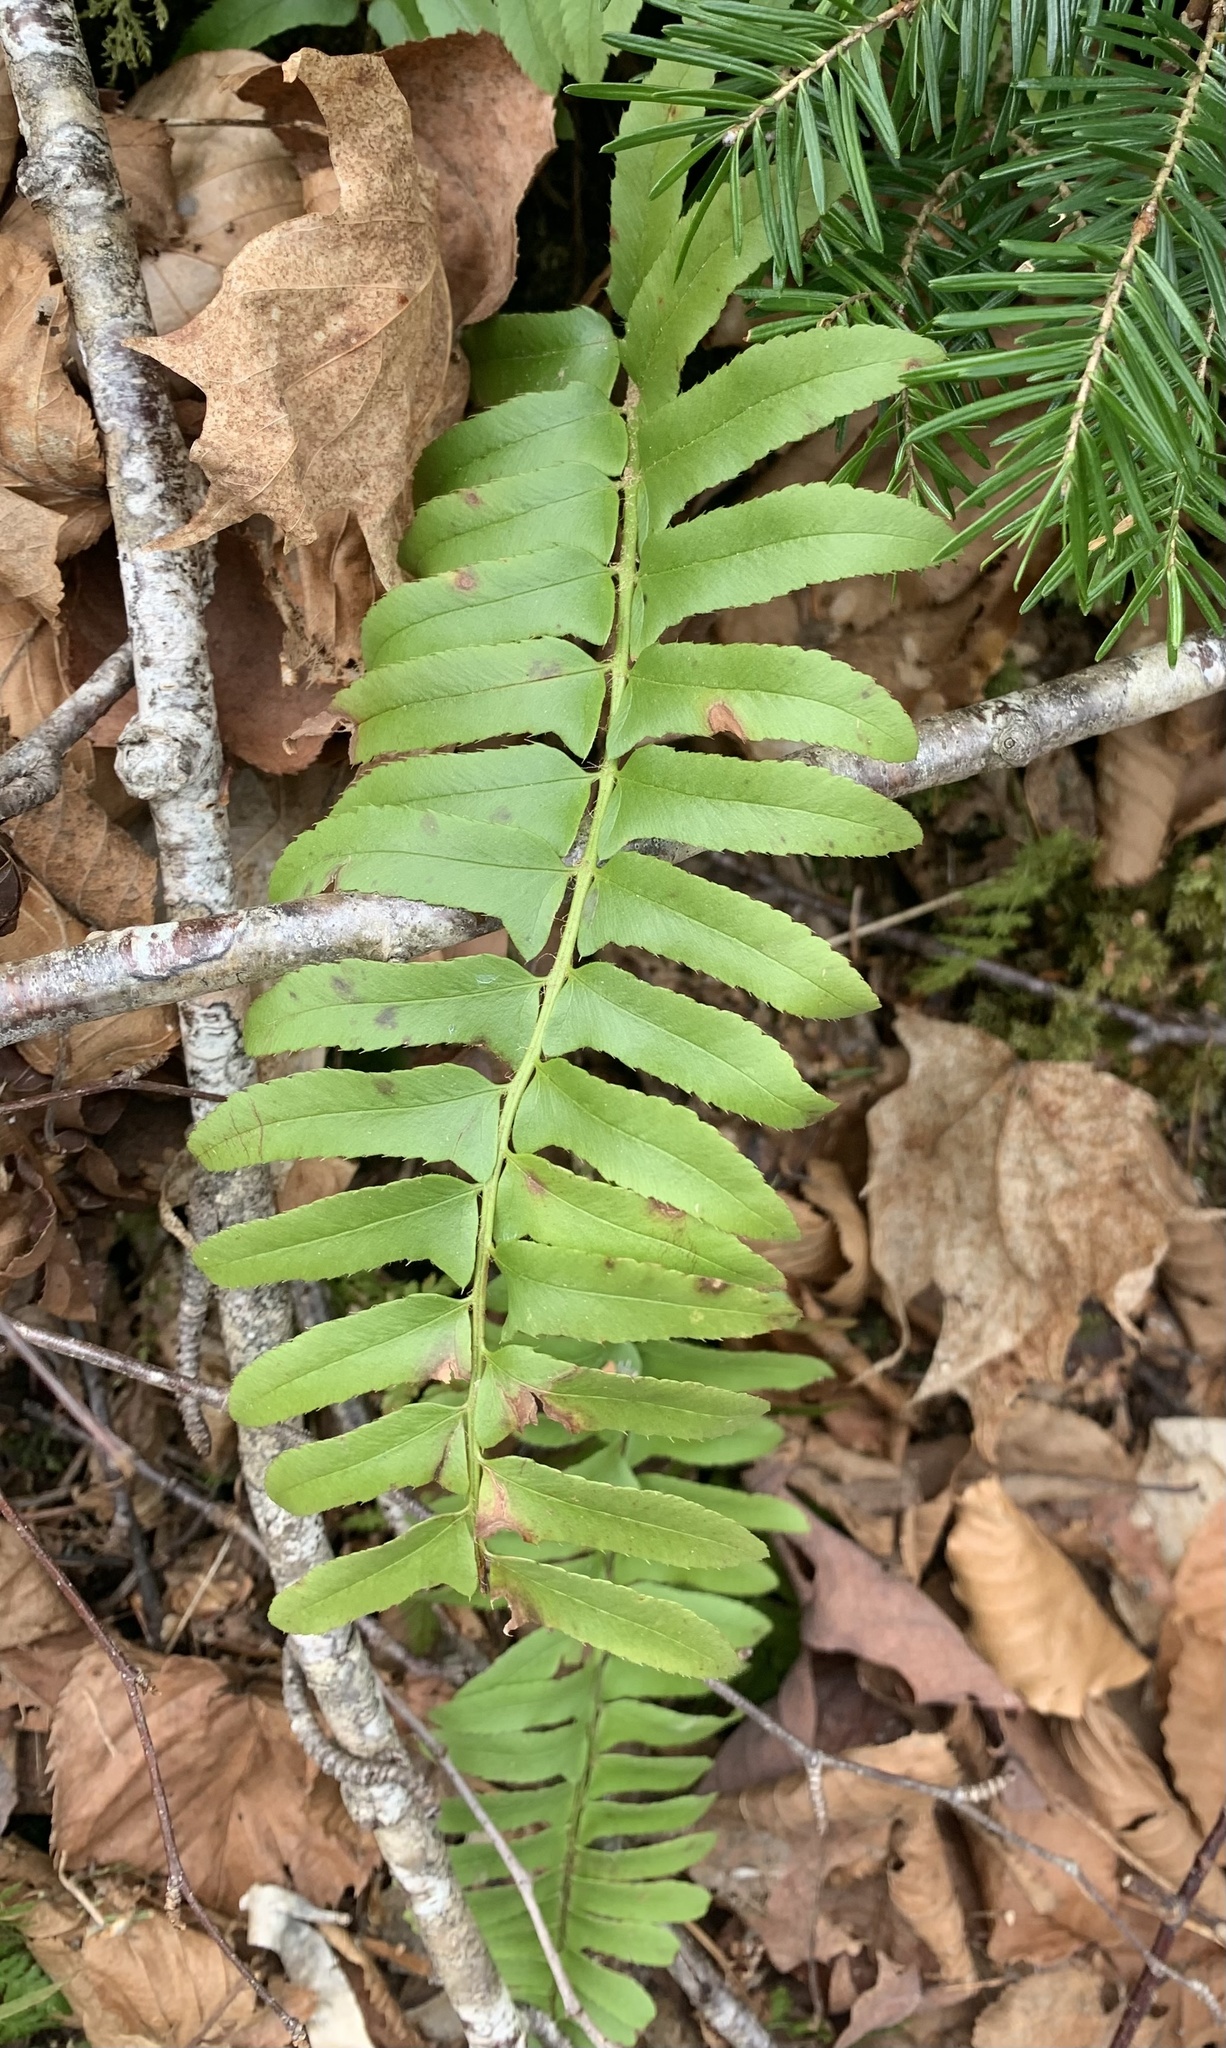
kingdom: Plantae
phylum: Tracheophyta
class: Polypodiopsida
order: Polypodiales
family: Dryopteridaceae
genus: Polystichum
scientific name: Polystichum acrostichoides
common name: Christmas fern
